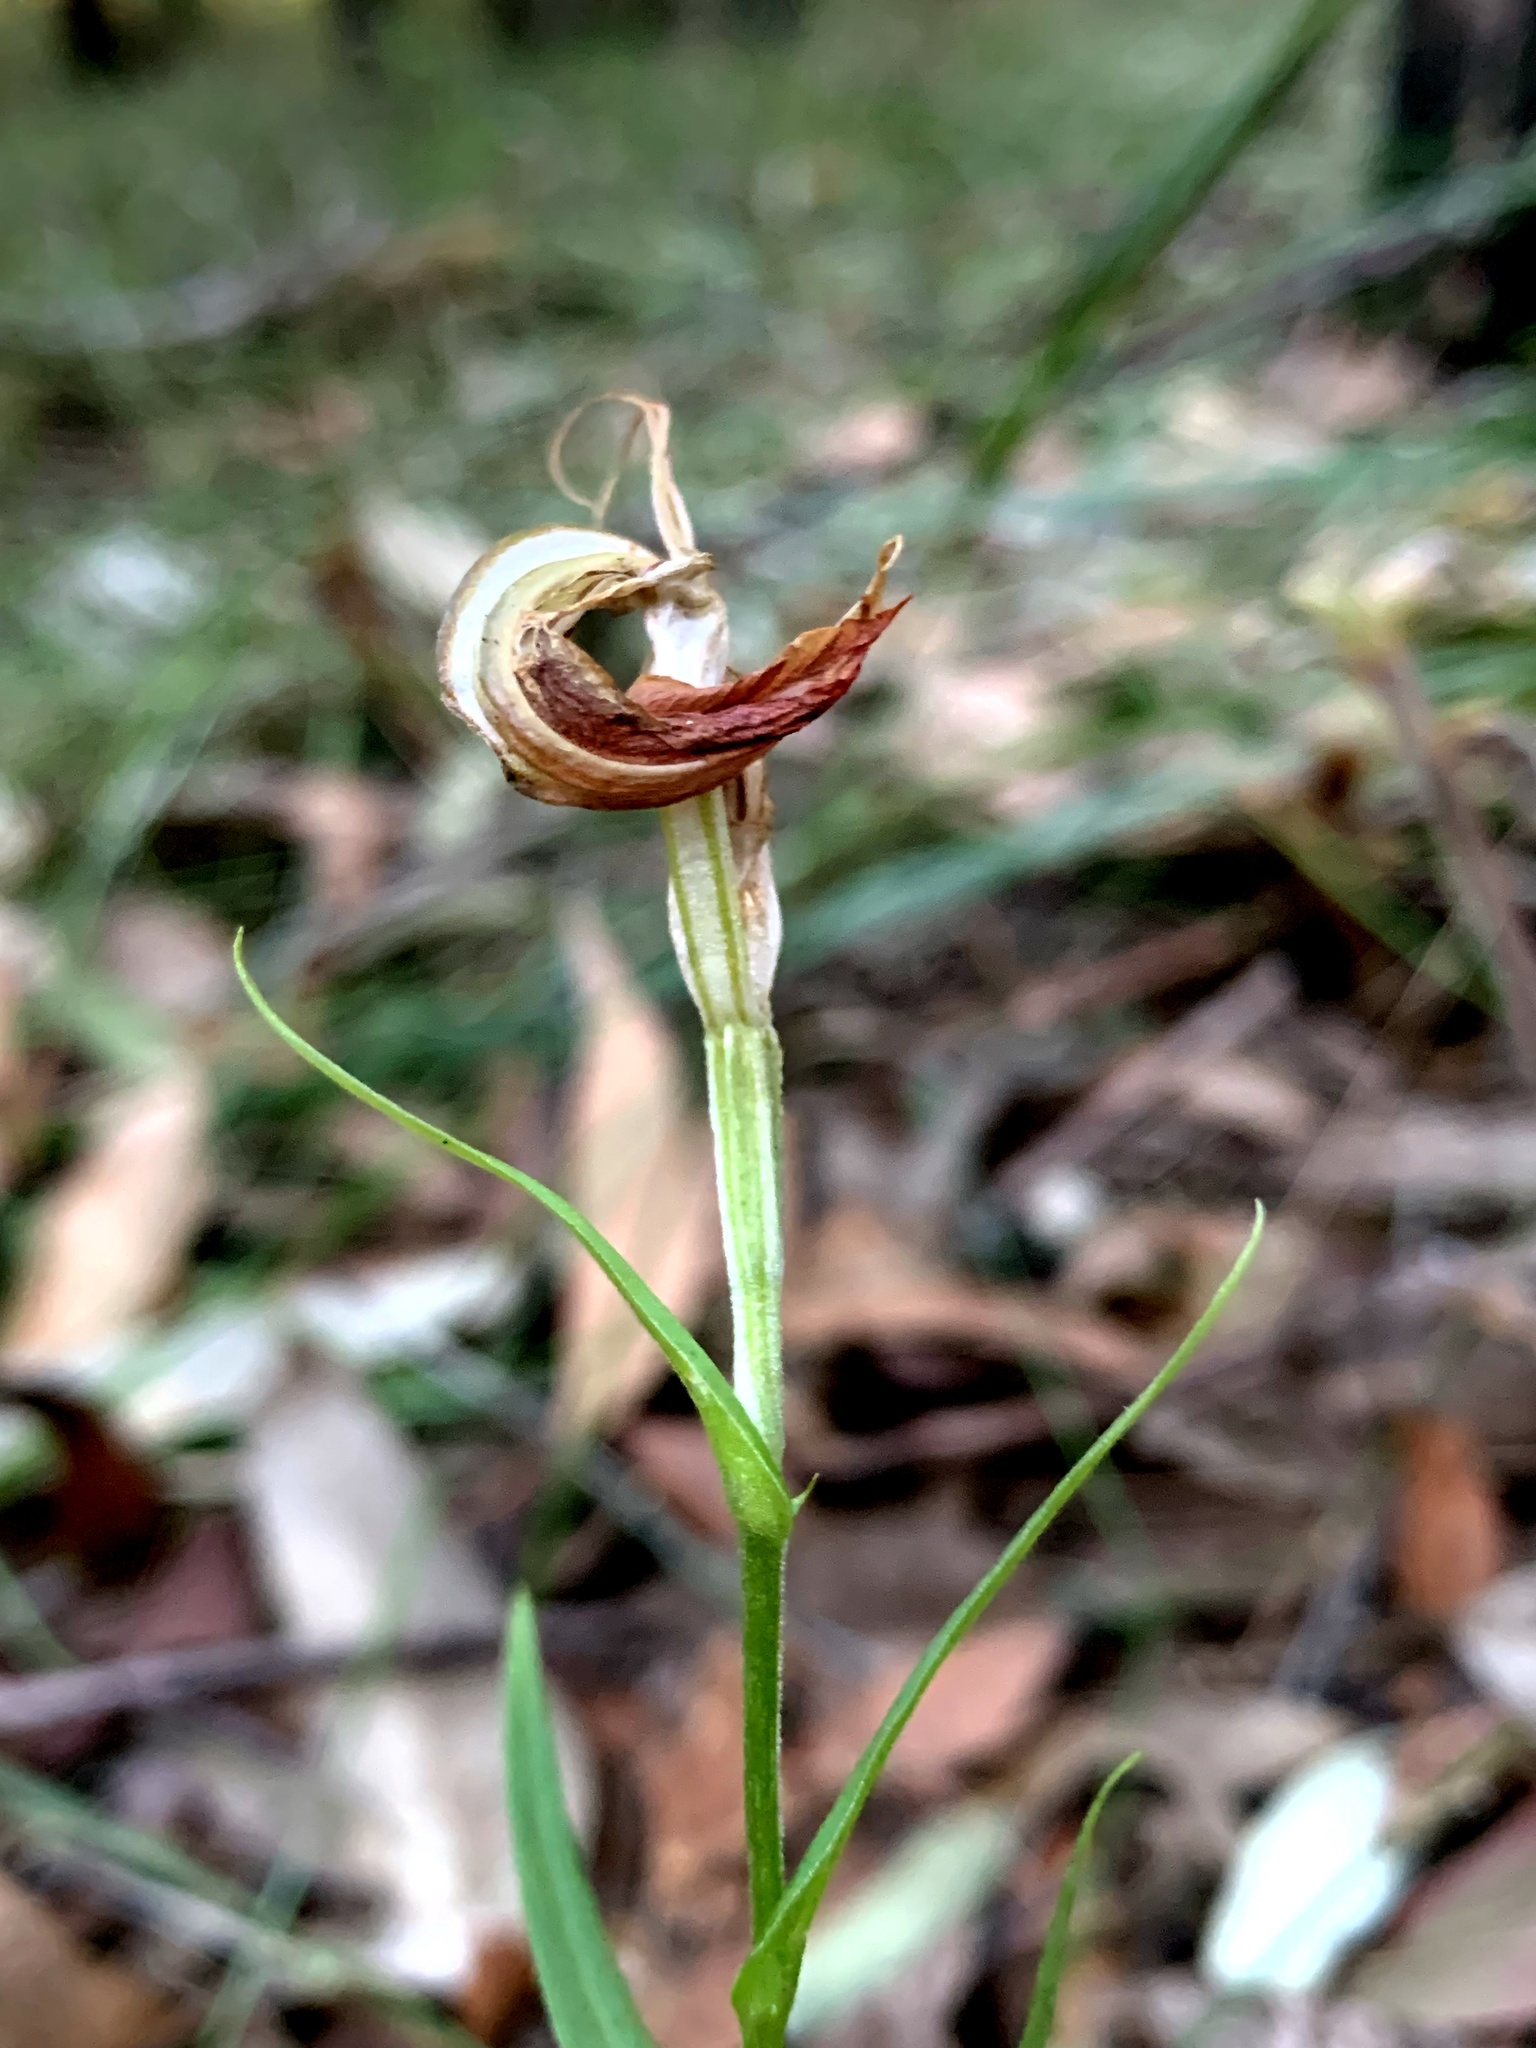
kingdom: Plantae
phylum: Tracheophyta
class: Liliopsida
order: Asparagales
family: Orchidaceae
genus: Pterostylis
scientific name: Pterostylis grandiflora
